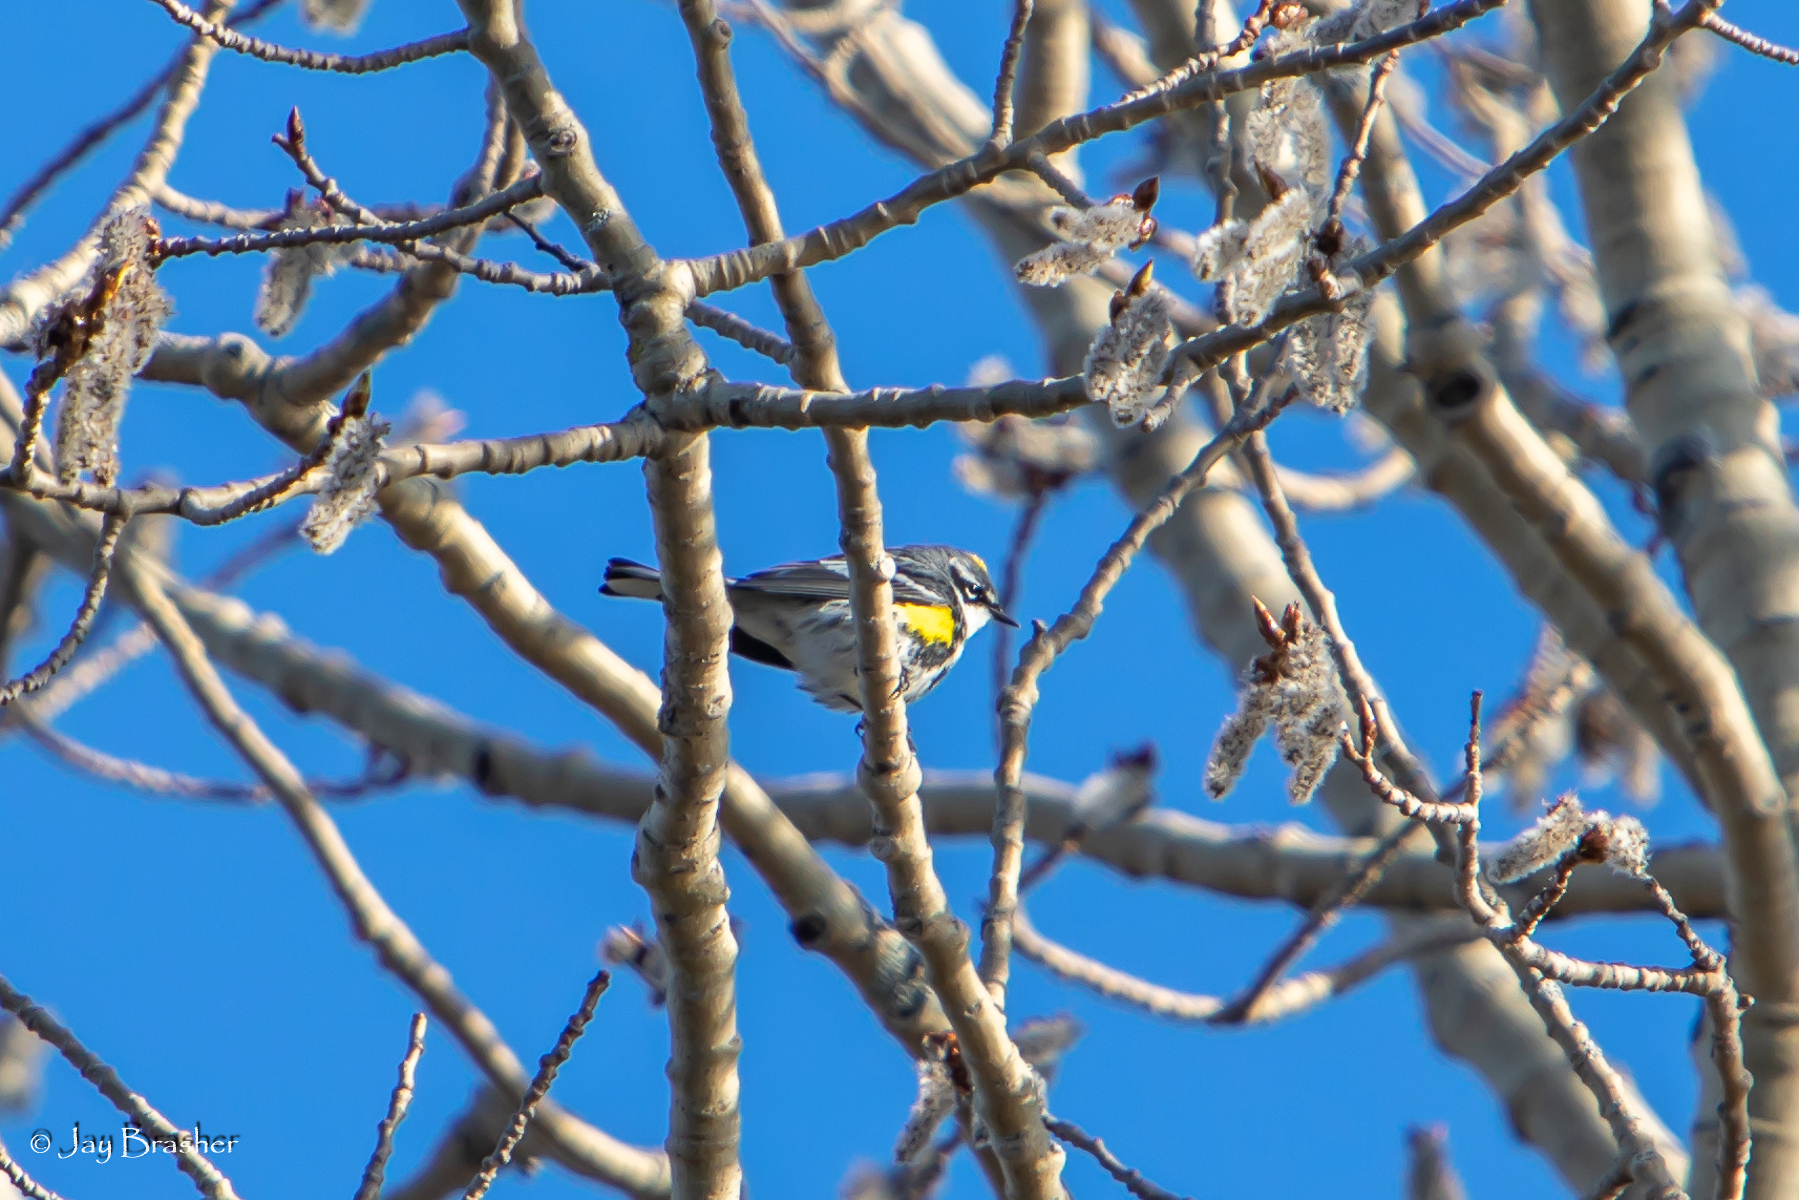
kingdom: Animalia
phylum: Chordata
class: Aves
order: Passeriformes
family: Parulidae
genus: Setophaga
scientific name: Setophaga coronata
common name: Myrtle warbler
